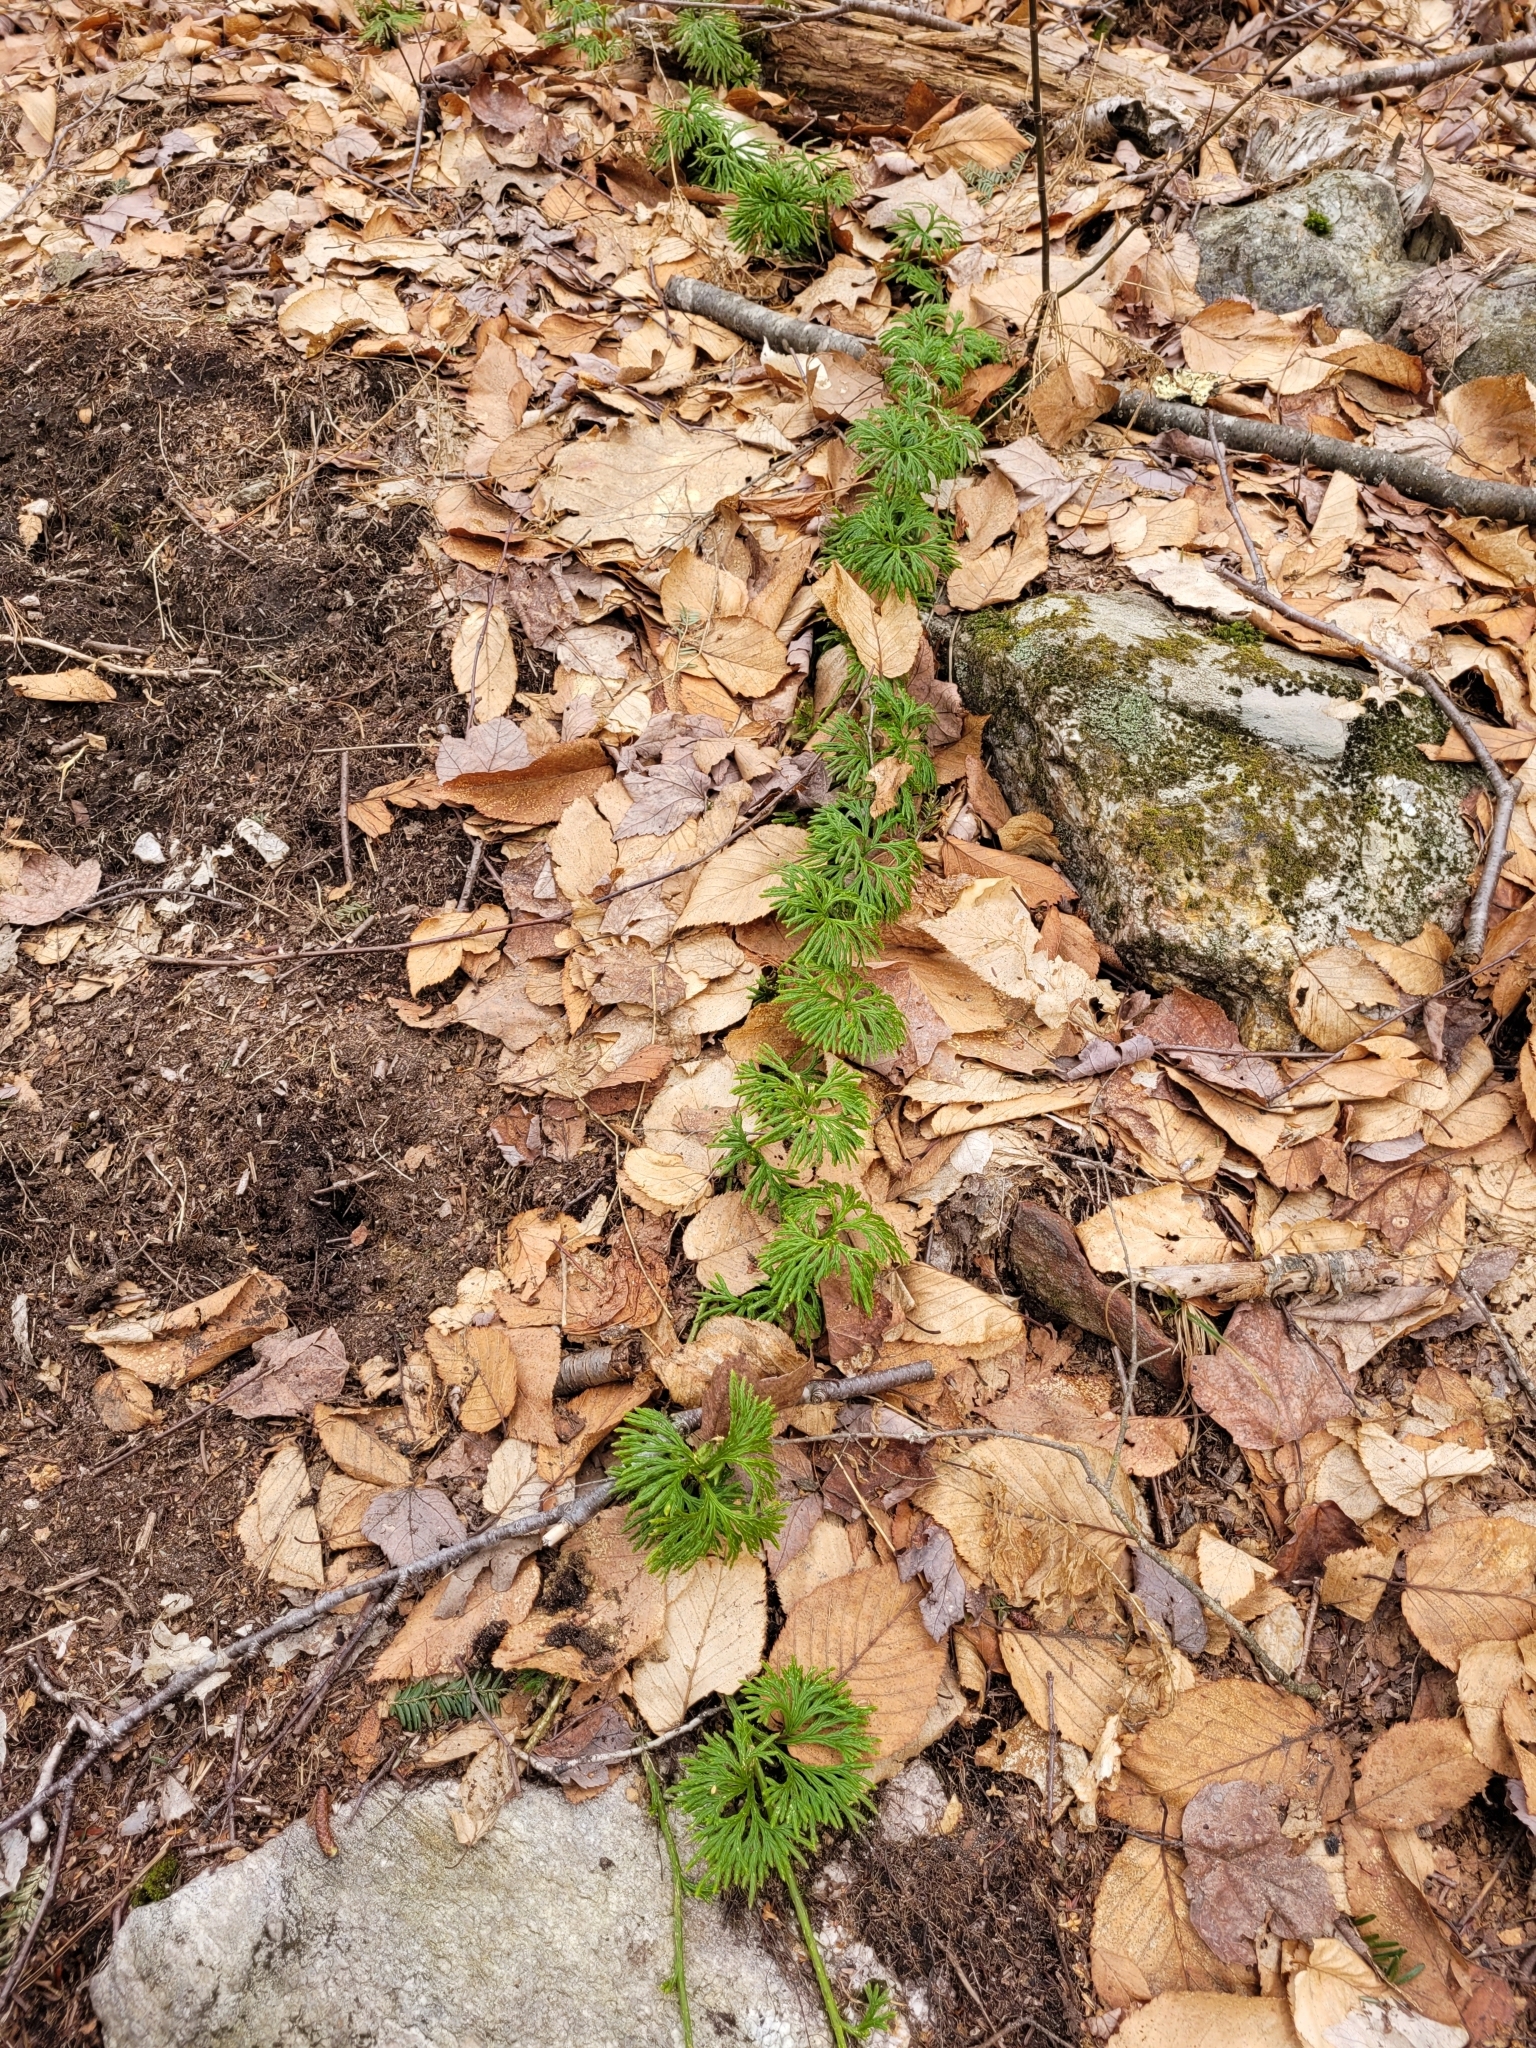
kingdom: Plantae
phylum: Tracheophyta
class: Lycopodiopsida
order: Lycopodiales
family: Lycopodiaceae
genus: Diphasiastrum
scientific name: Diphasiastrum digitatum
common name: Southern running-pine
